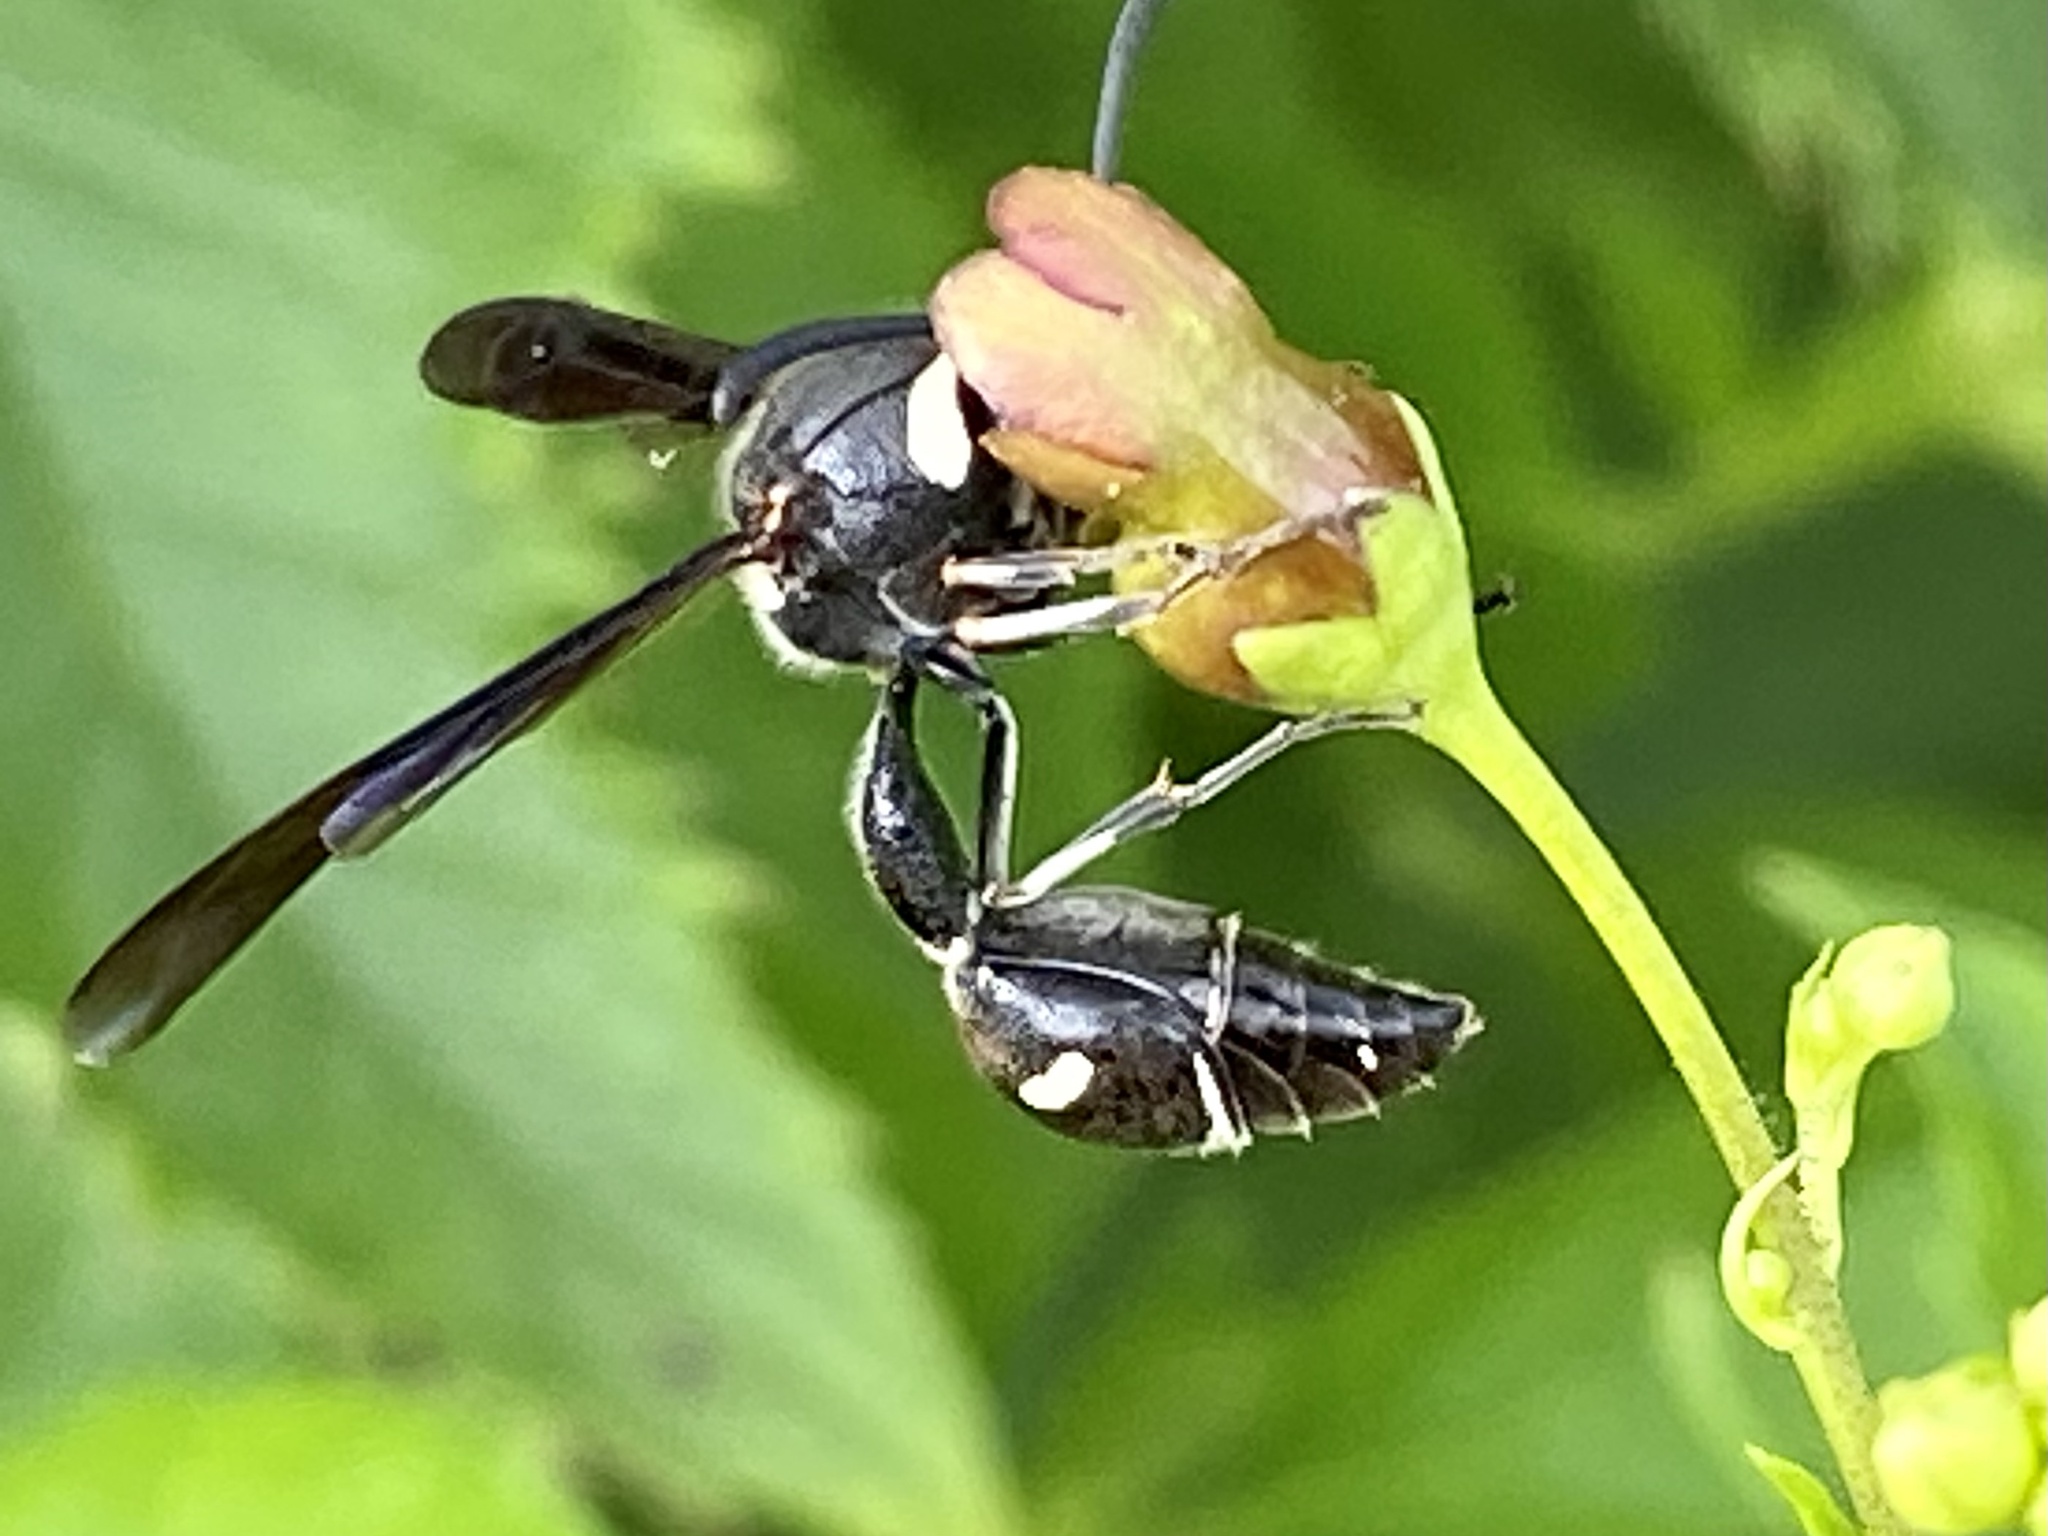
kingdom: Animalia
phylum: Arthropoda
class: Insecta
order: Hymenoptera
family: Vespidae
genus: Eumenes
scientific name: Eumenes fraternus
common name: Fraternal potter wasp
